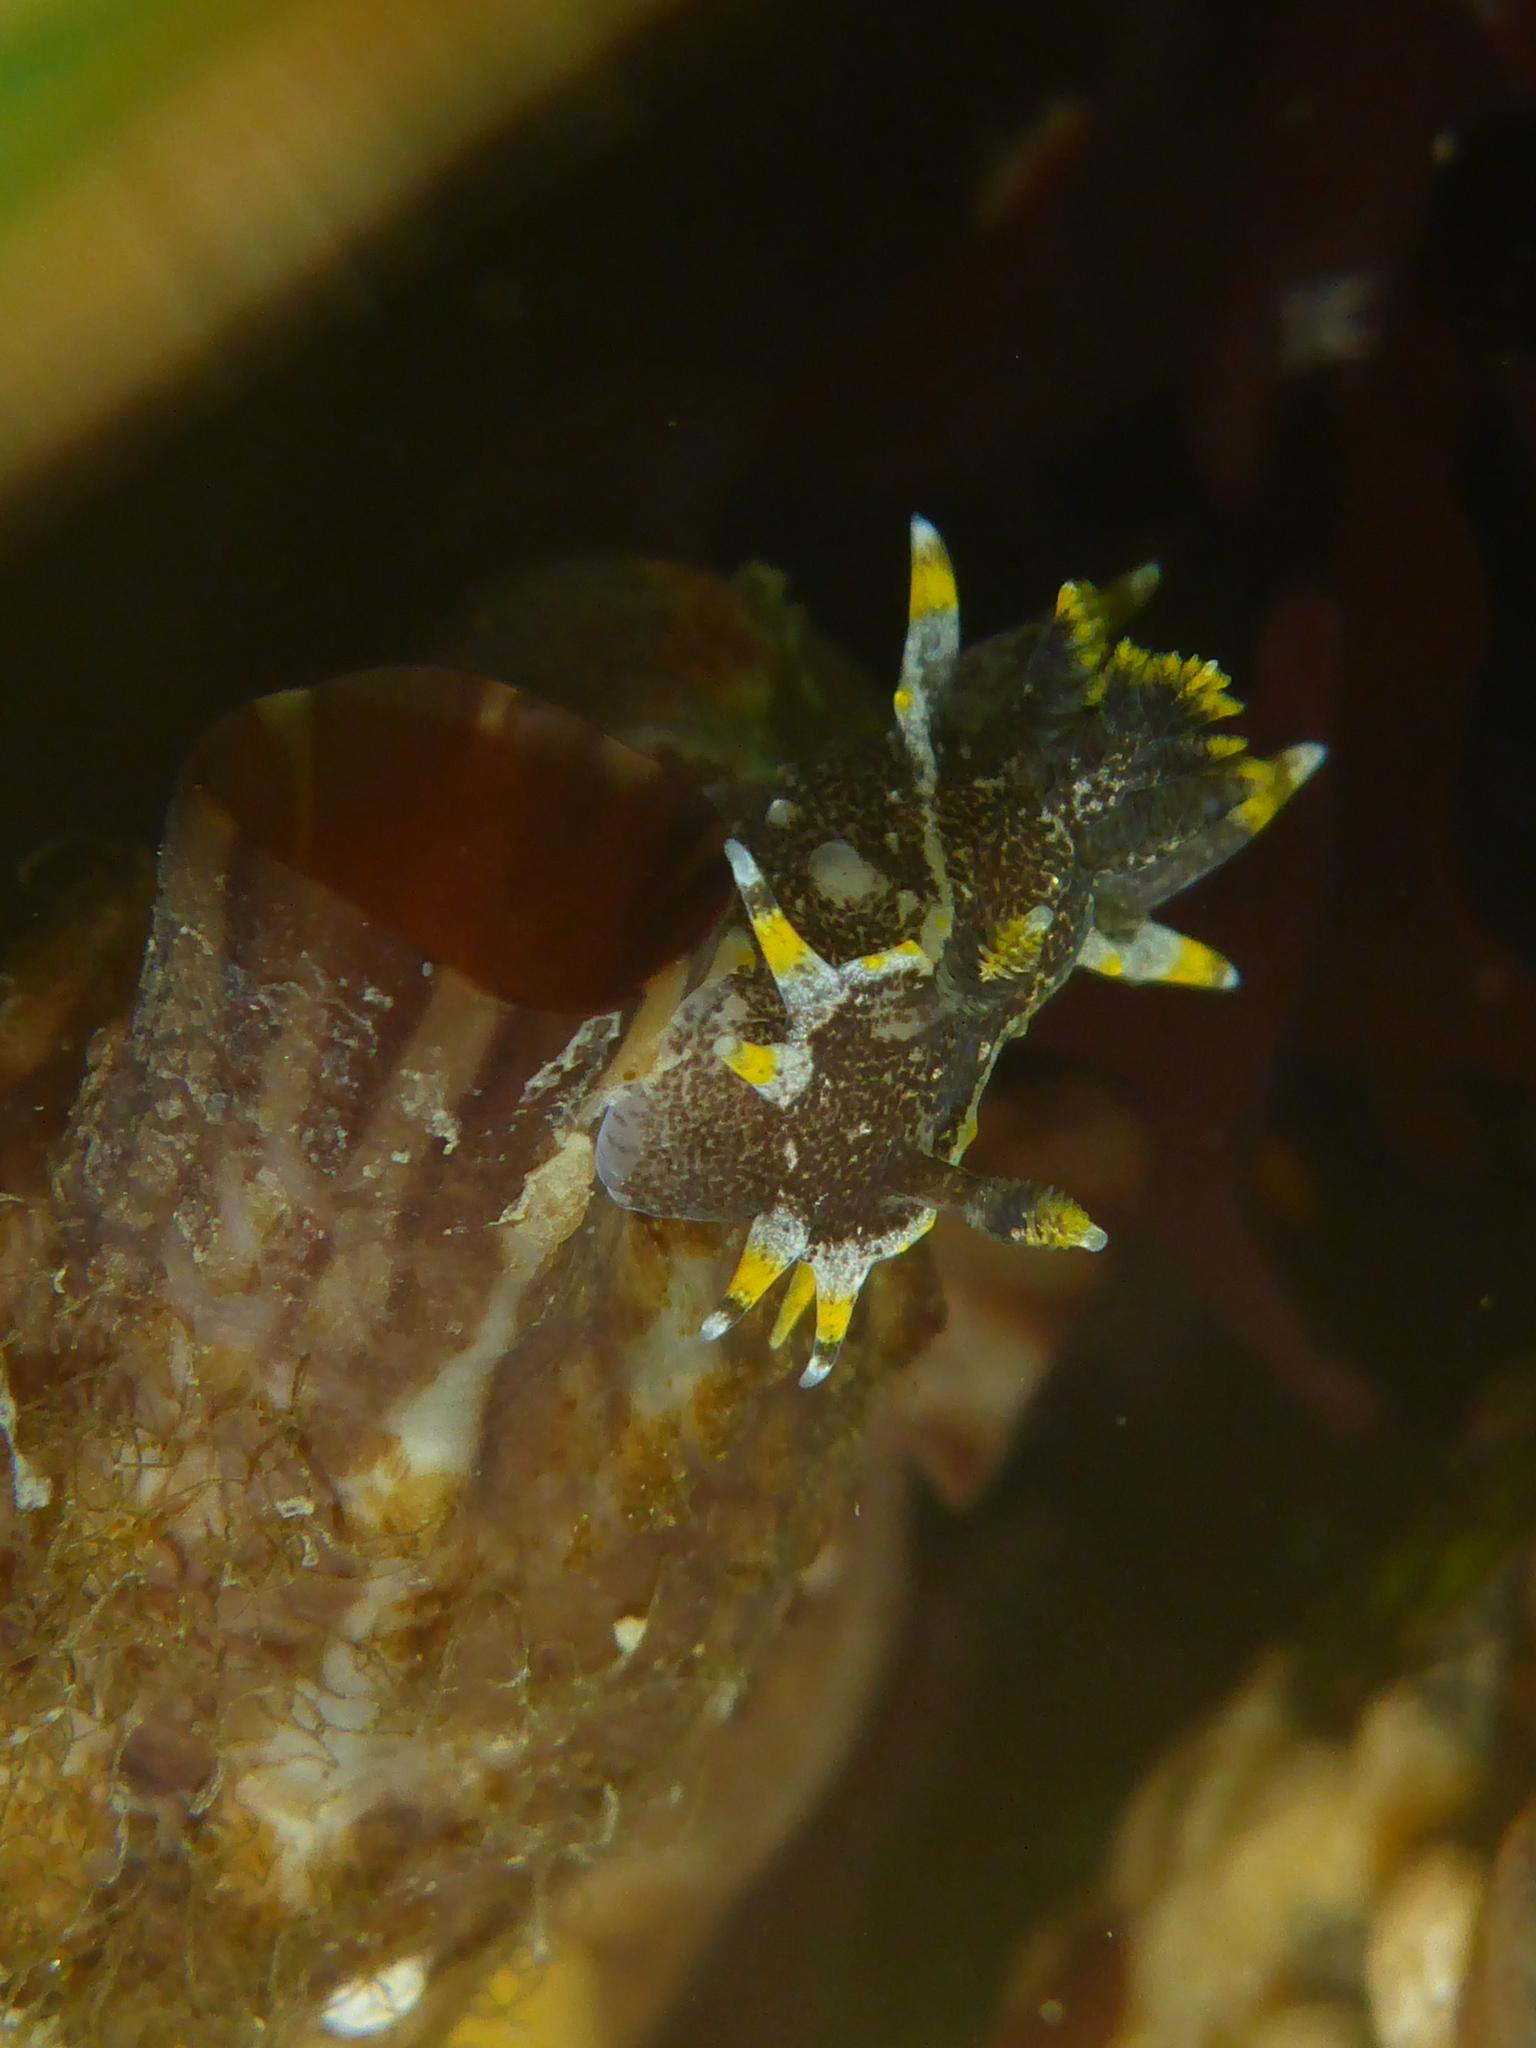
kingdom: Animalia
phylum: Mollusca
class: Gastropoda
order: Nudibranchia
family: Polyceridae
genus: Polycera
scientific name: Polycera hedgpethi
